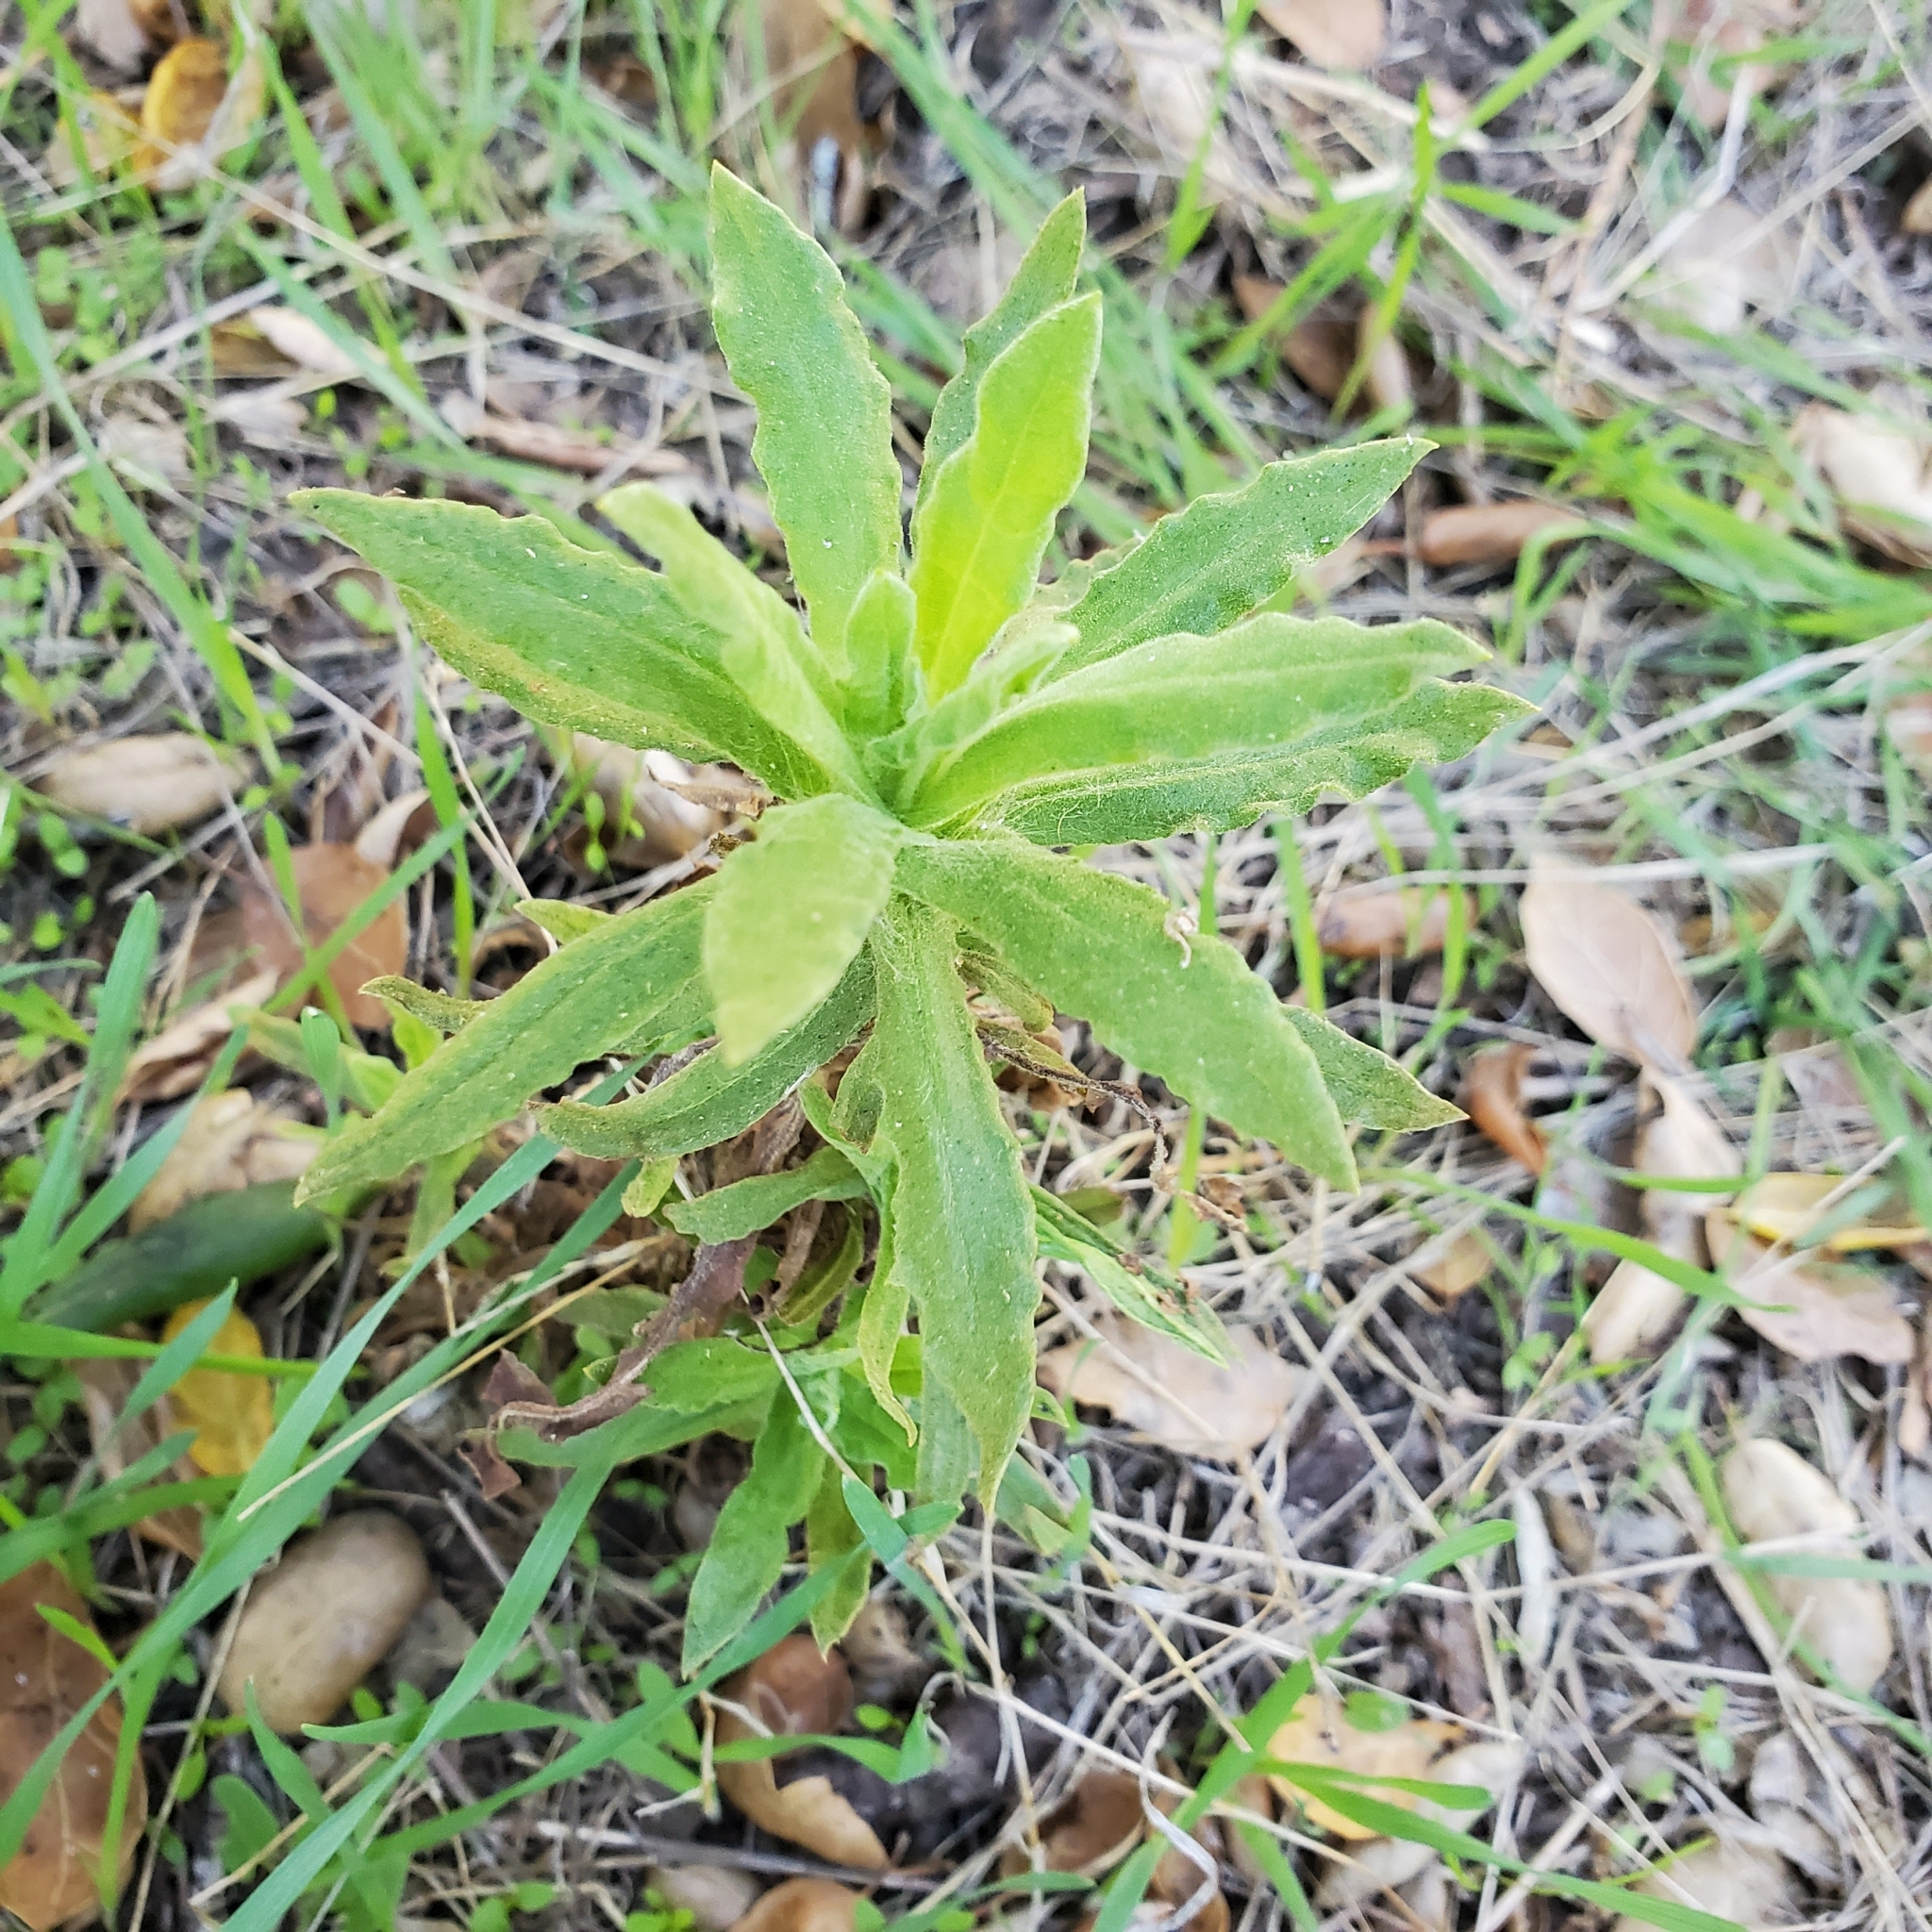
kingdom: Plantae
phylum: Tracheophyta
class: Magnoliopsida
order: Asterales
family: Asteraceae
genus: Pseudognaphalium
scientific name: Pseudognaphalium californicum
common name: California rabbit-tobacco
